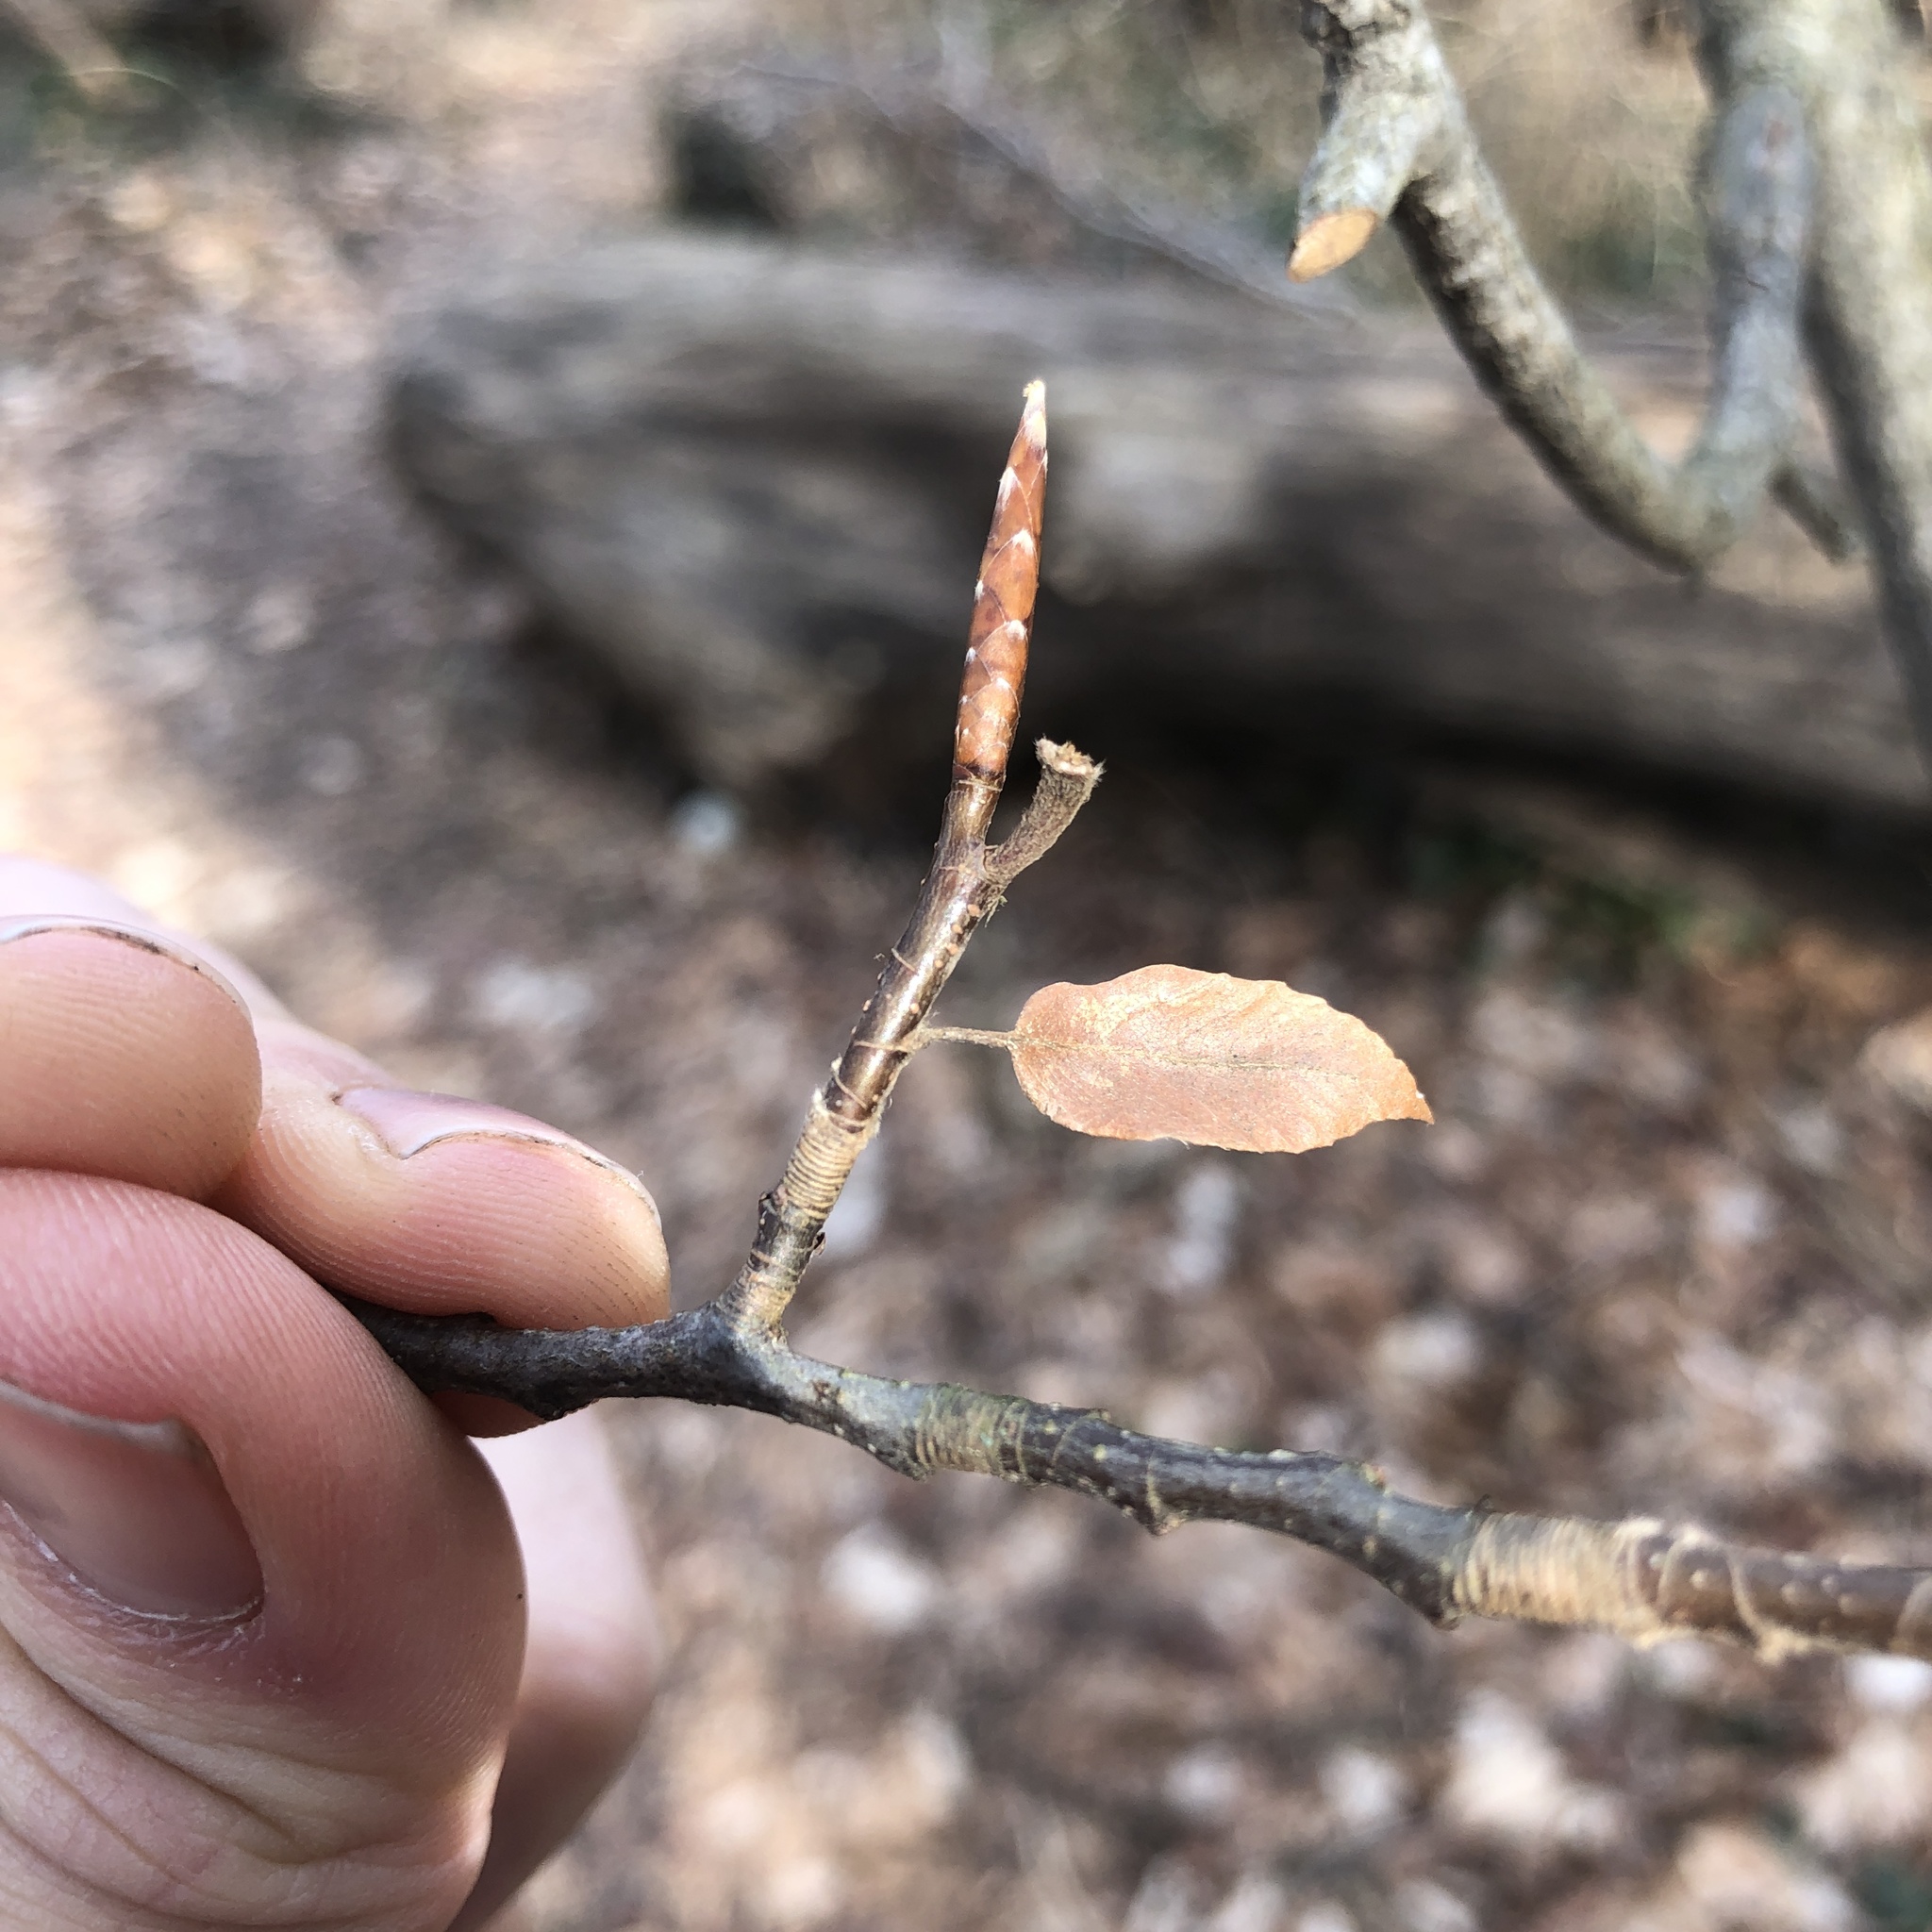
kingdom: Plantae
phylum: Tracheophyta
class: Magnoliopsida
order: Fagales
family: Fagaceae
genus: Fagus
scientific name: Fagus grandifolia
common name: American beech
